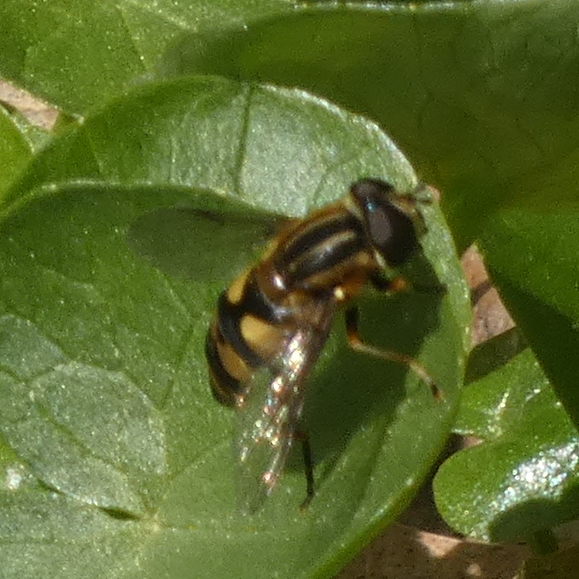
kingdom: Animalia
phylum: Arthropoda
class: Insecta
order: Diptera
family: Syrphidae
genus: Helophilus
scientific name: Helophilus fasciatus
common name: Narrow-headed marsh fly
